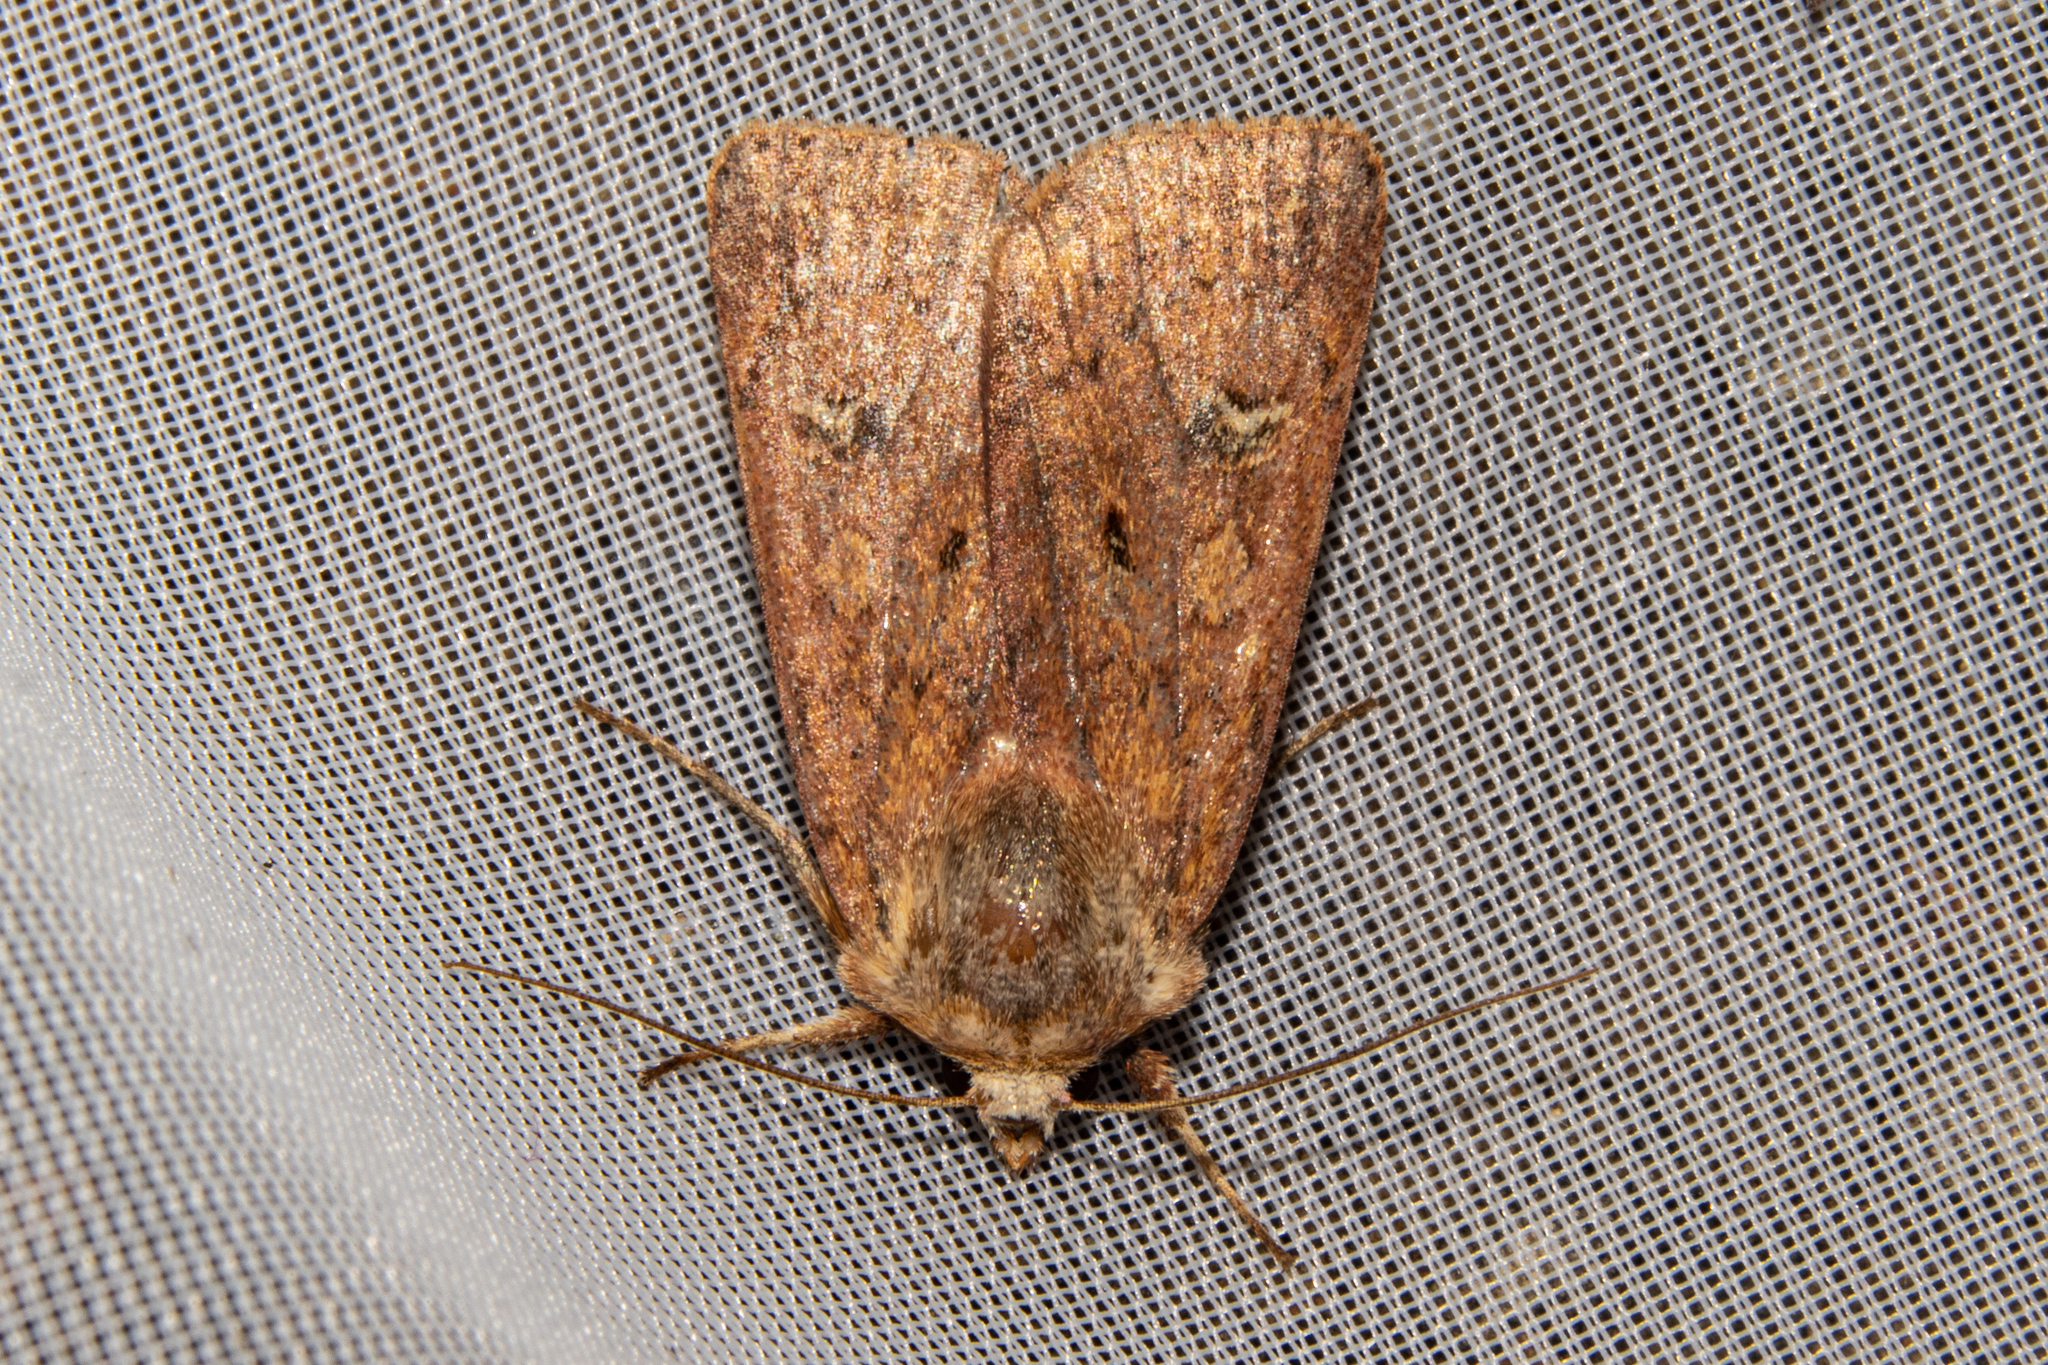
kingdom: Animalia
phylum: Arthropoda
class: Insecta
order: Lepidoptera
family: Noctuidae
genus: Diarsia
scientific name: Diarsia intermixta
